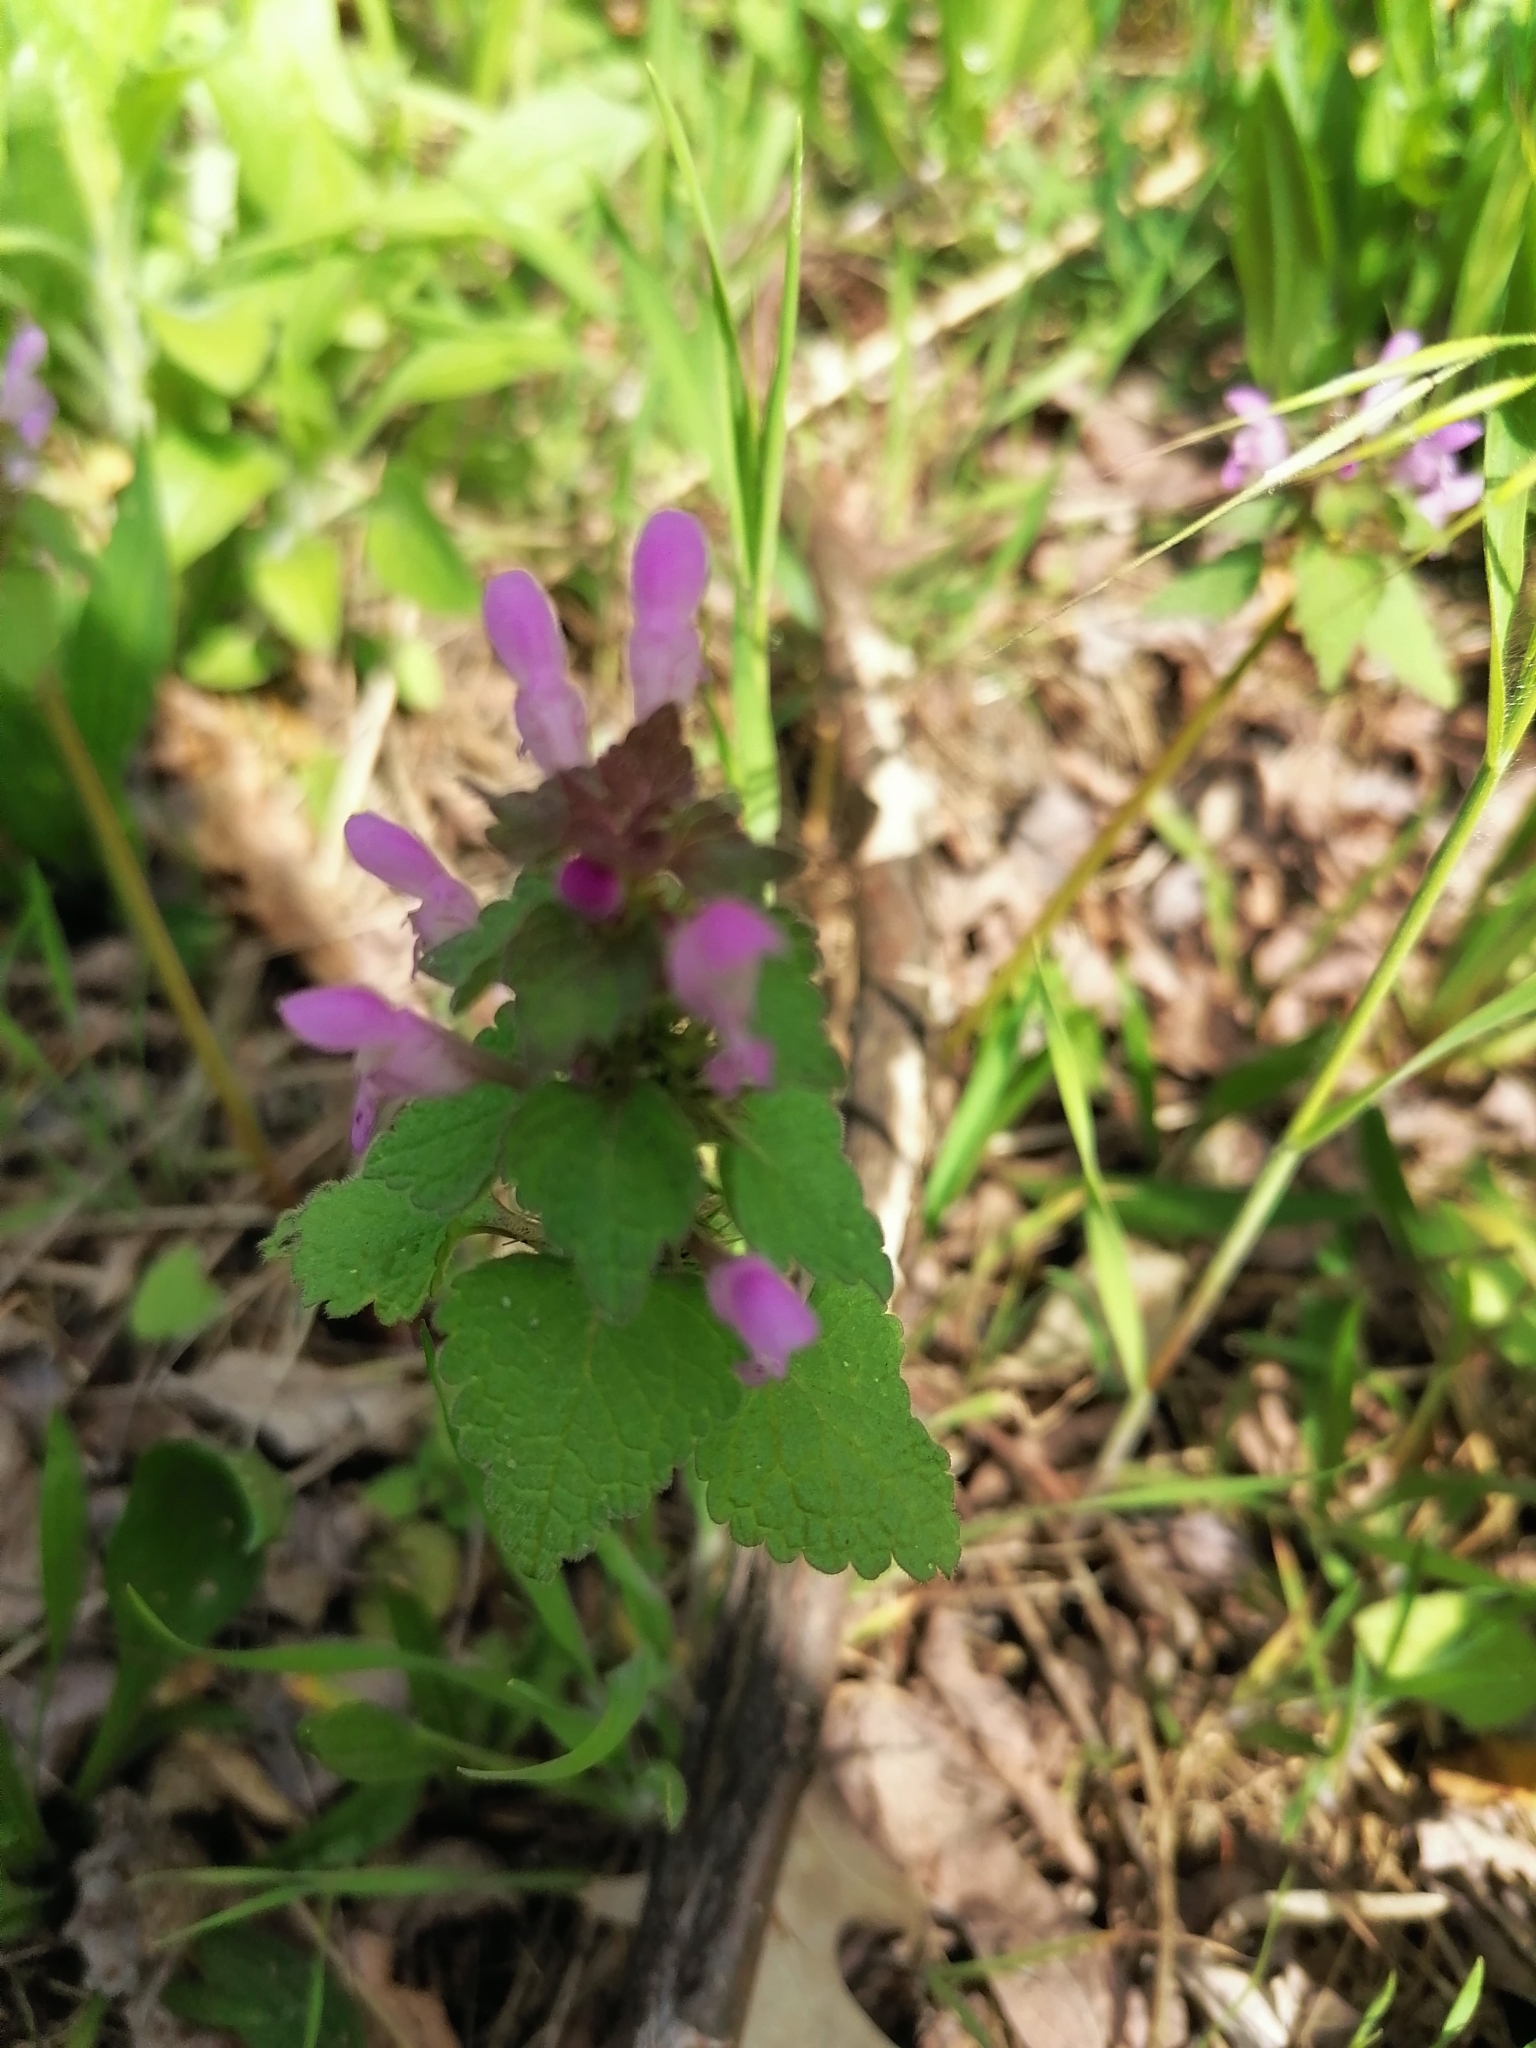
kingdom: Plantae
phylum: Tracheophyta
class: Magnoliopsida
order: Lamiales
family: Lamiaceae
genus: Lamium
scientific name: Lamium purpureum
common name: Red dead-nettle
